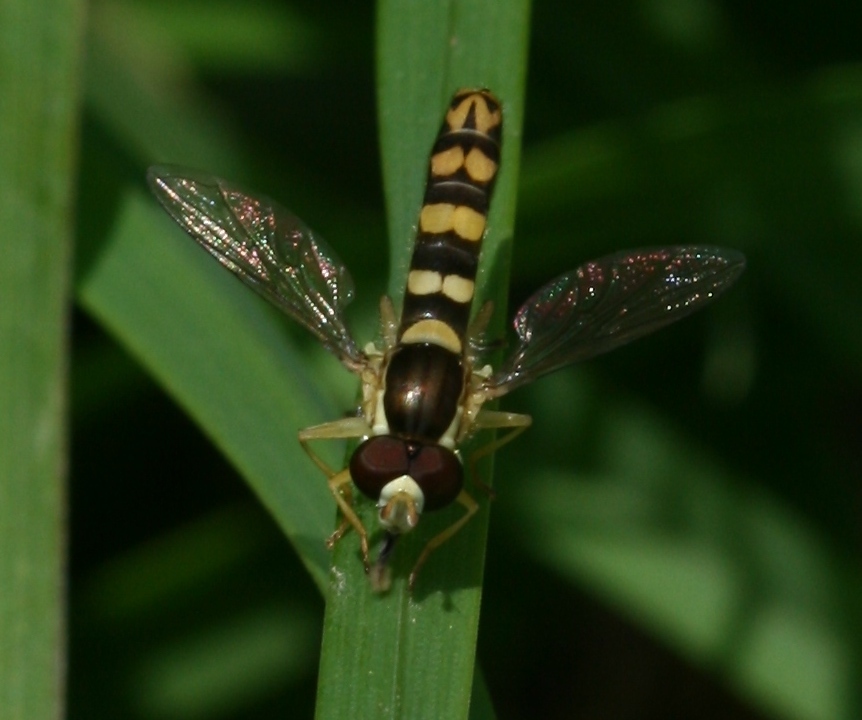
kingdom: Animalia
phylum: Arthropoda
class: Insecta
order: Diptera
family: Syrphidae
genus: Sphaerophoria
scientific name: Sphaerophoria scripta
